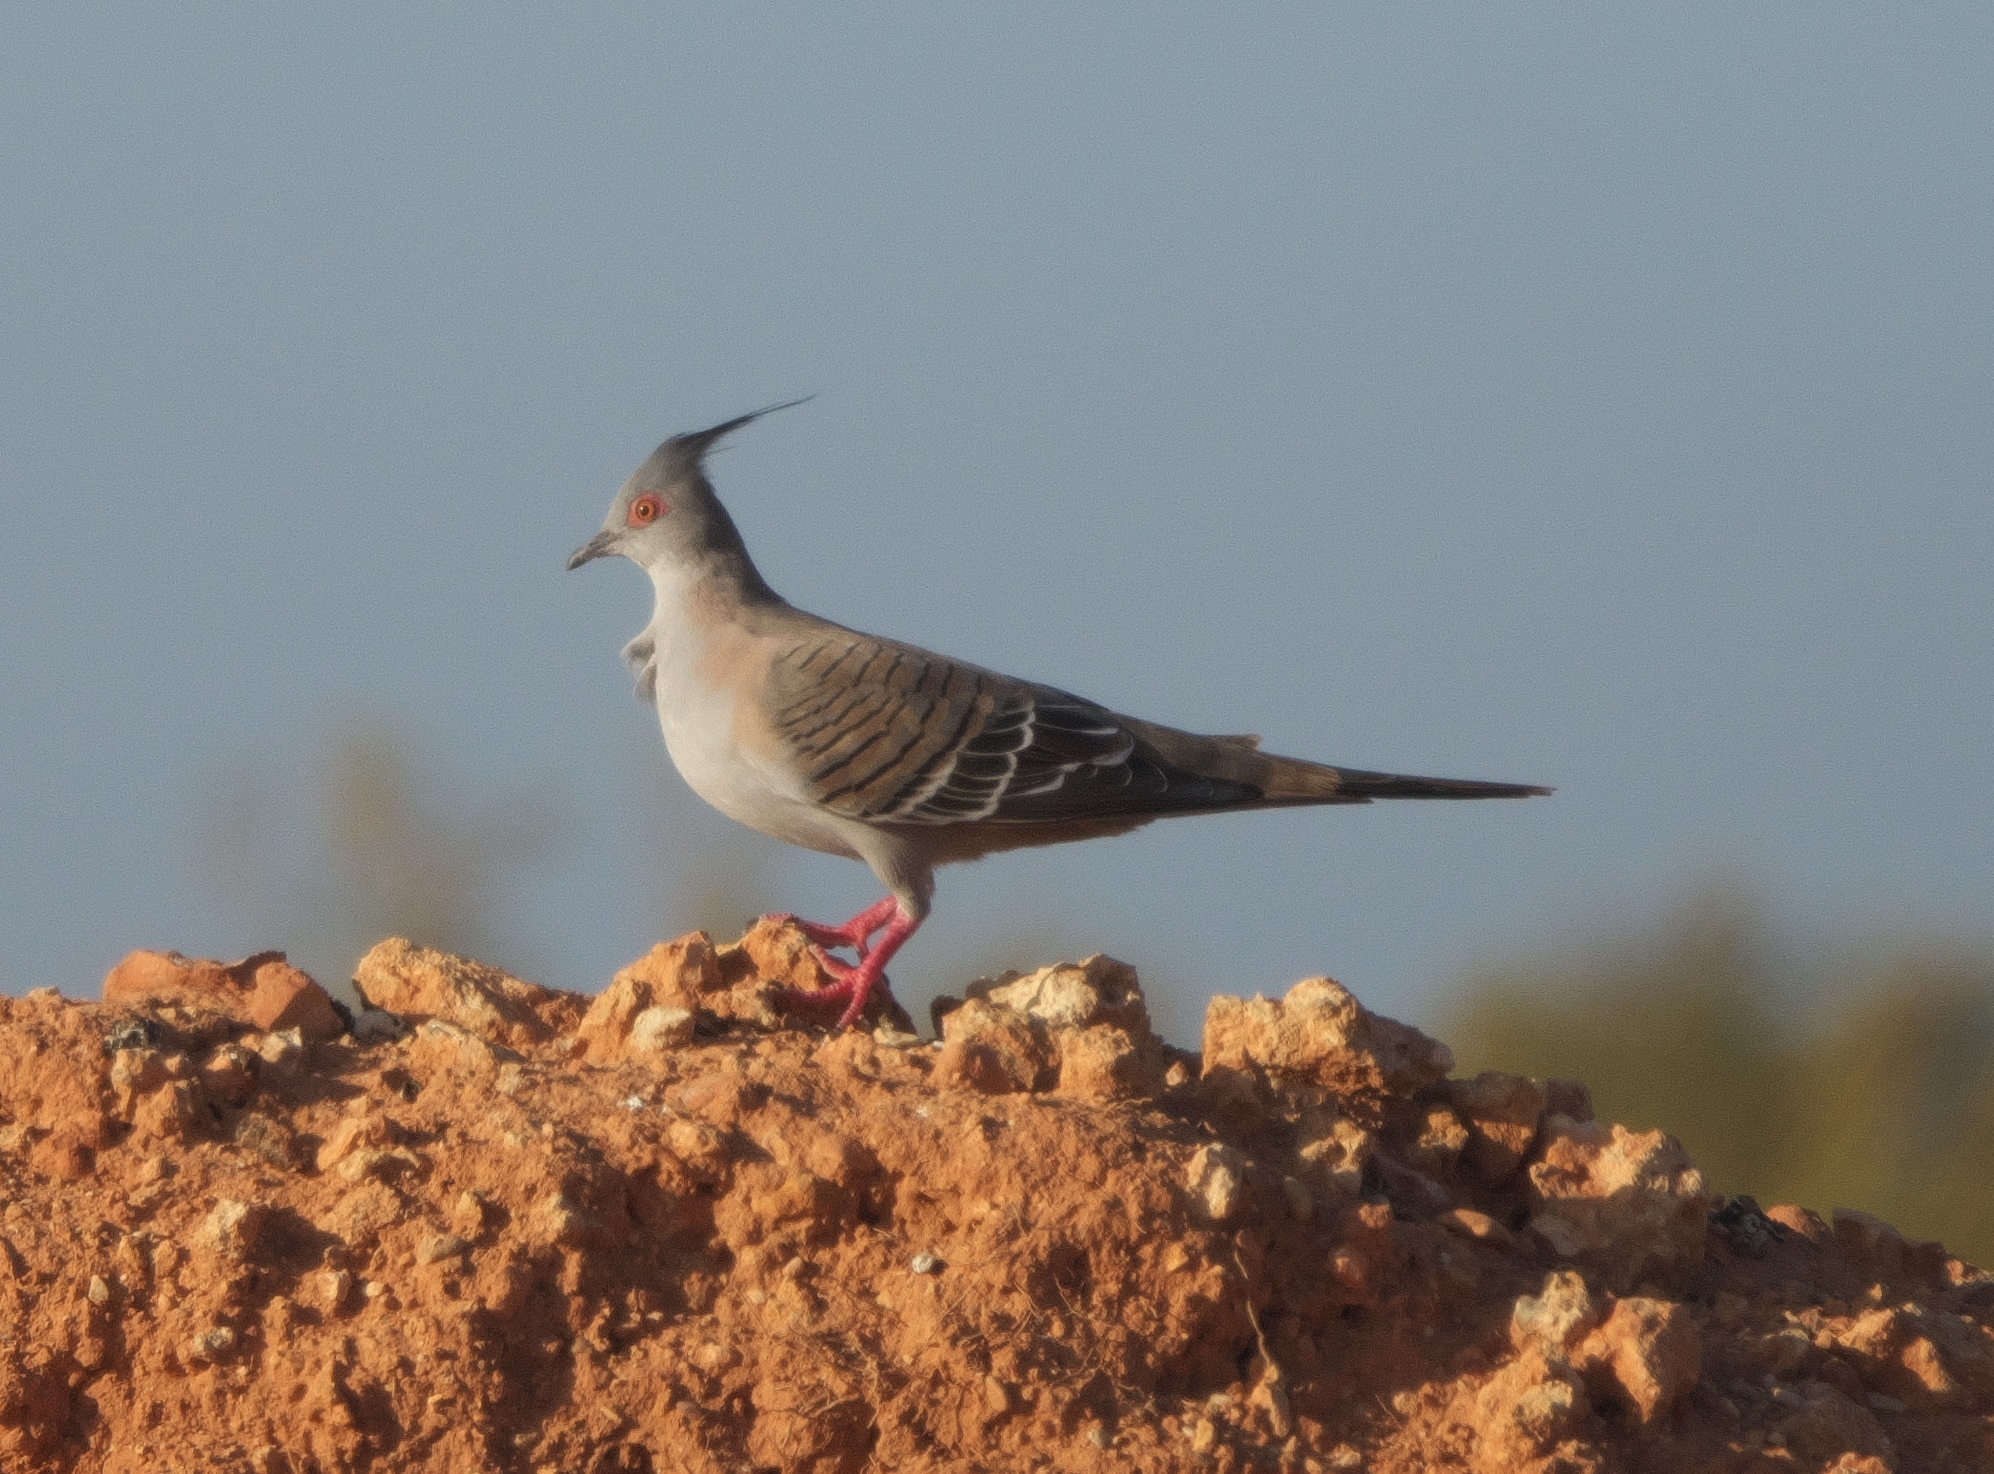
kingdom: Animalia
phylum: Chordata
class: Aves
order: Columbiformes
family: Columbidae
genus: Ocyphaps
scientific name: Ocyphaps lophotes
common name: Crested pigeon
